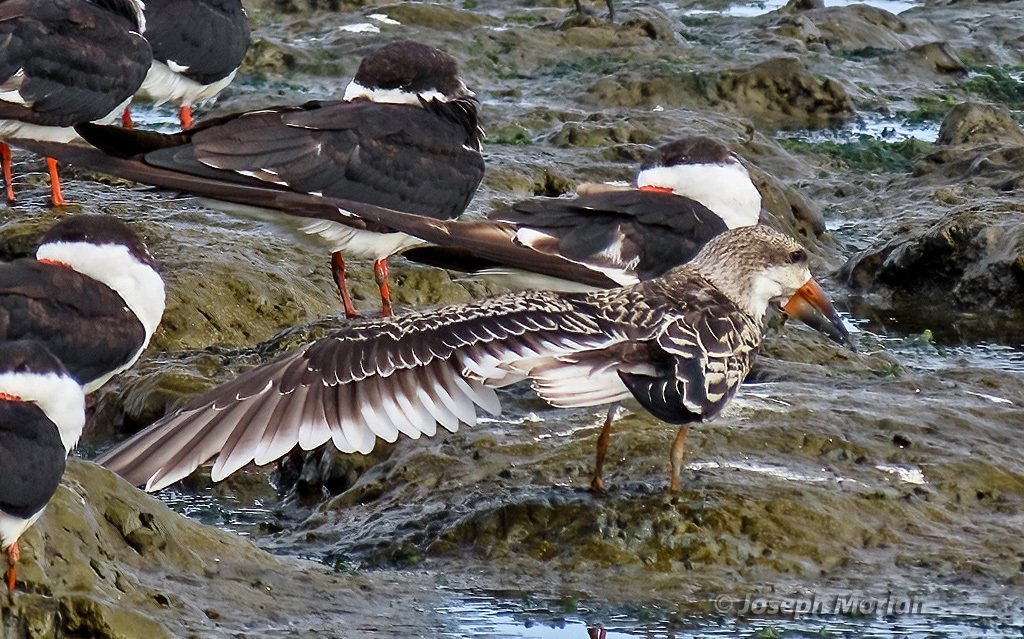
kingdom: Animalia
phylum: Chordata
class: Aves
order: Charadriiformes
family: Laridae
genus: Rynchops
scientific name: Rynchops niger
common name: Black skimmer
